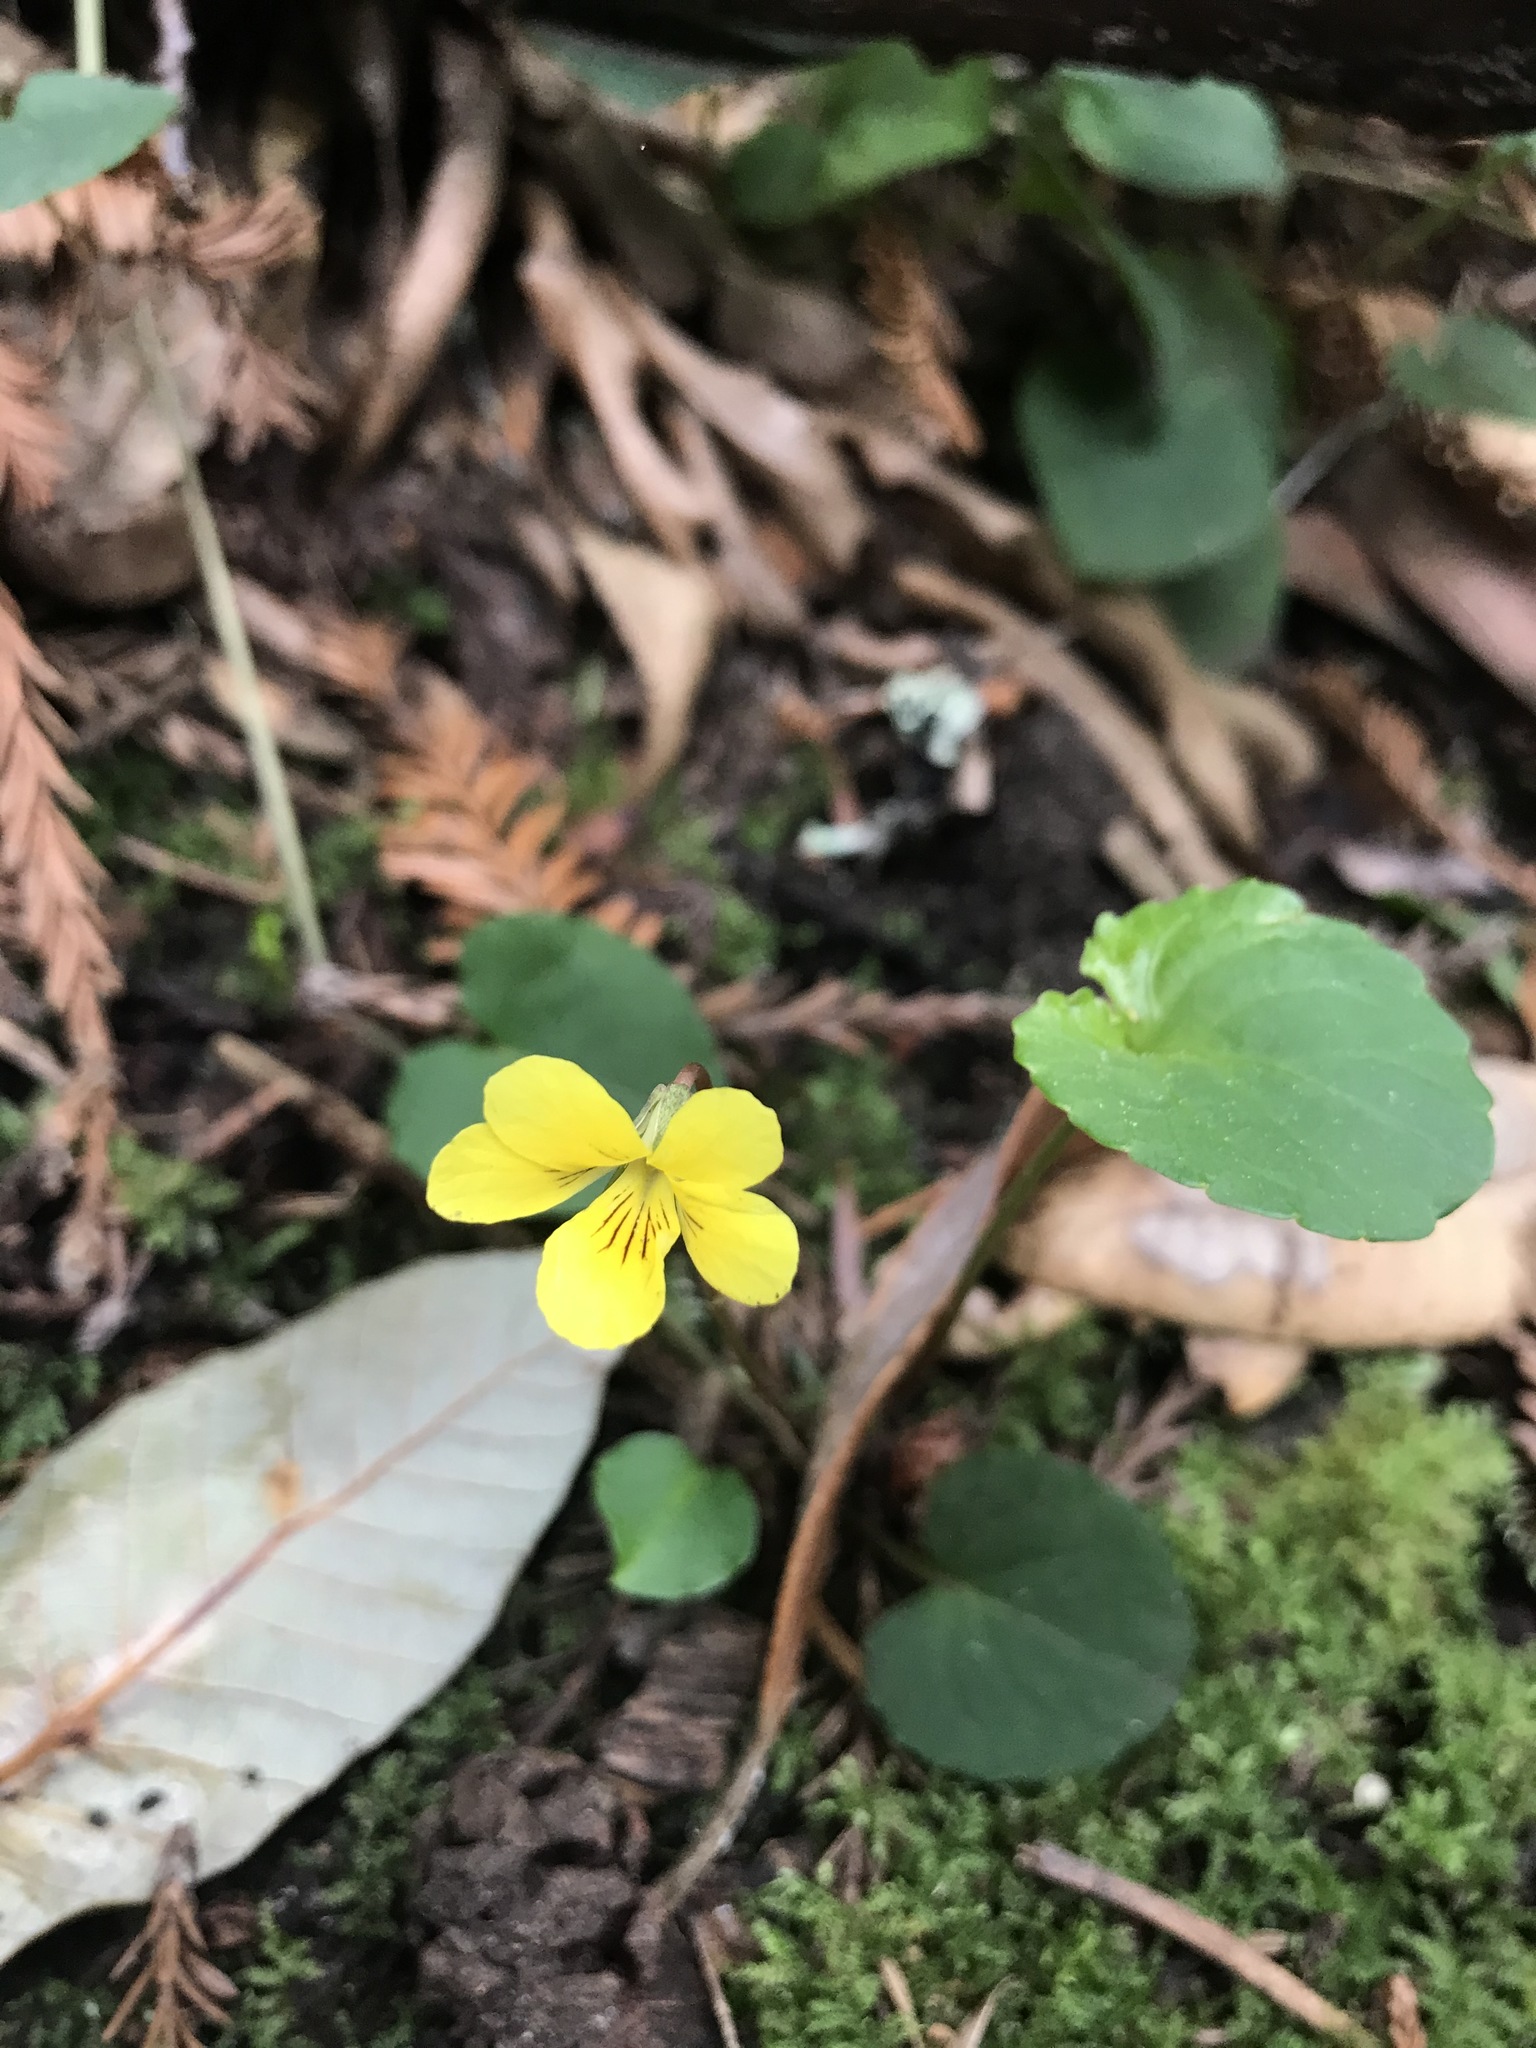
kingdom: Plantae
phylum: Tracheophyta
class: Magnoliopsida
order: Malpighiales
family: Violaceae
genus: Viola
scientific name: Viola sempervirens
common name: Evergreen violet
